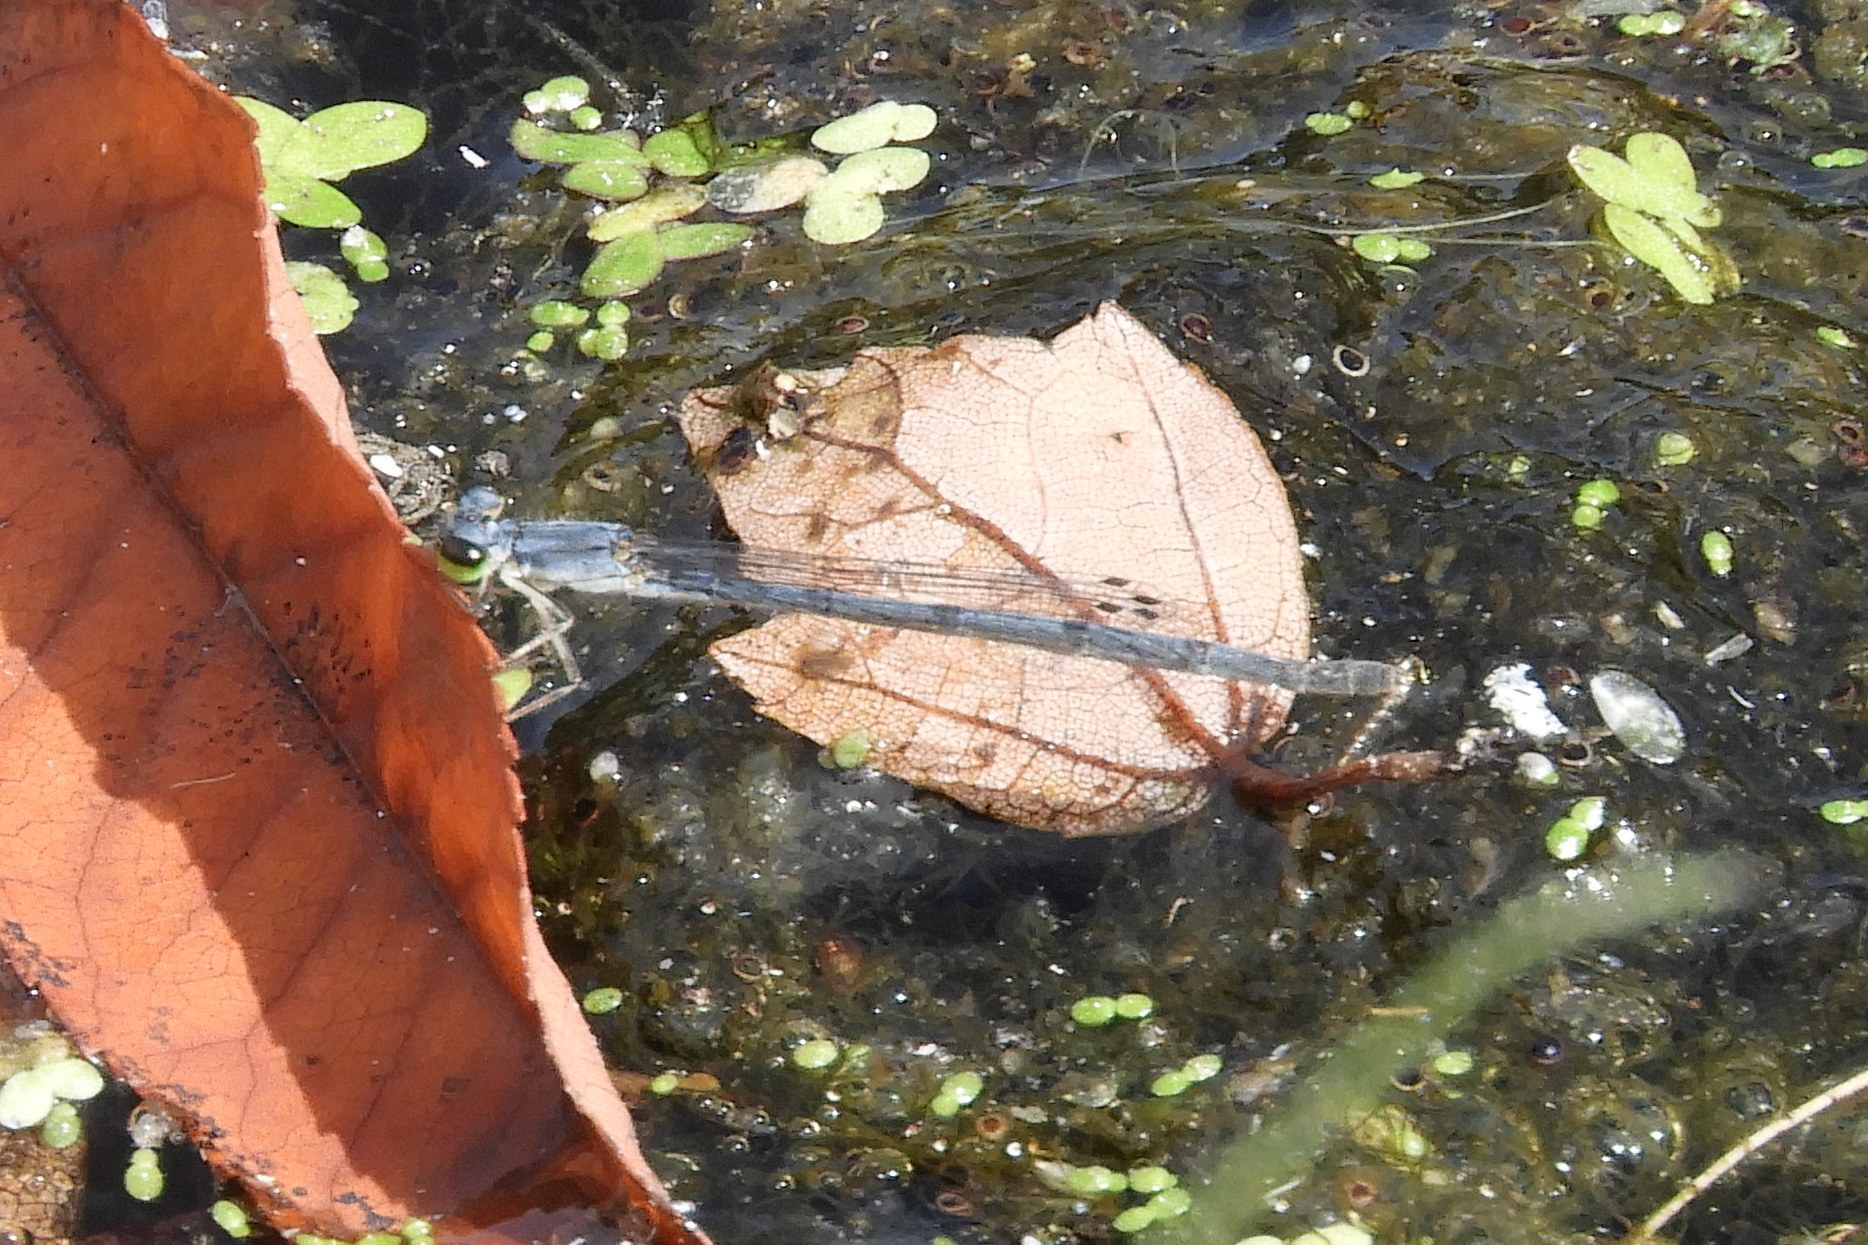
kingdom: Animalia
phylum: Arthropoda
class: Insecta
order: Odonata
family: Coenagrionidae
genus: Ischnura
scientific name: Ischnura posita
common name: Fragile forktail
